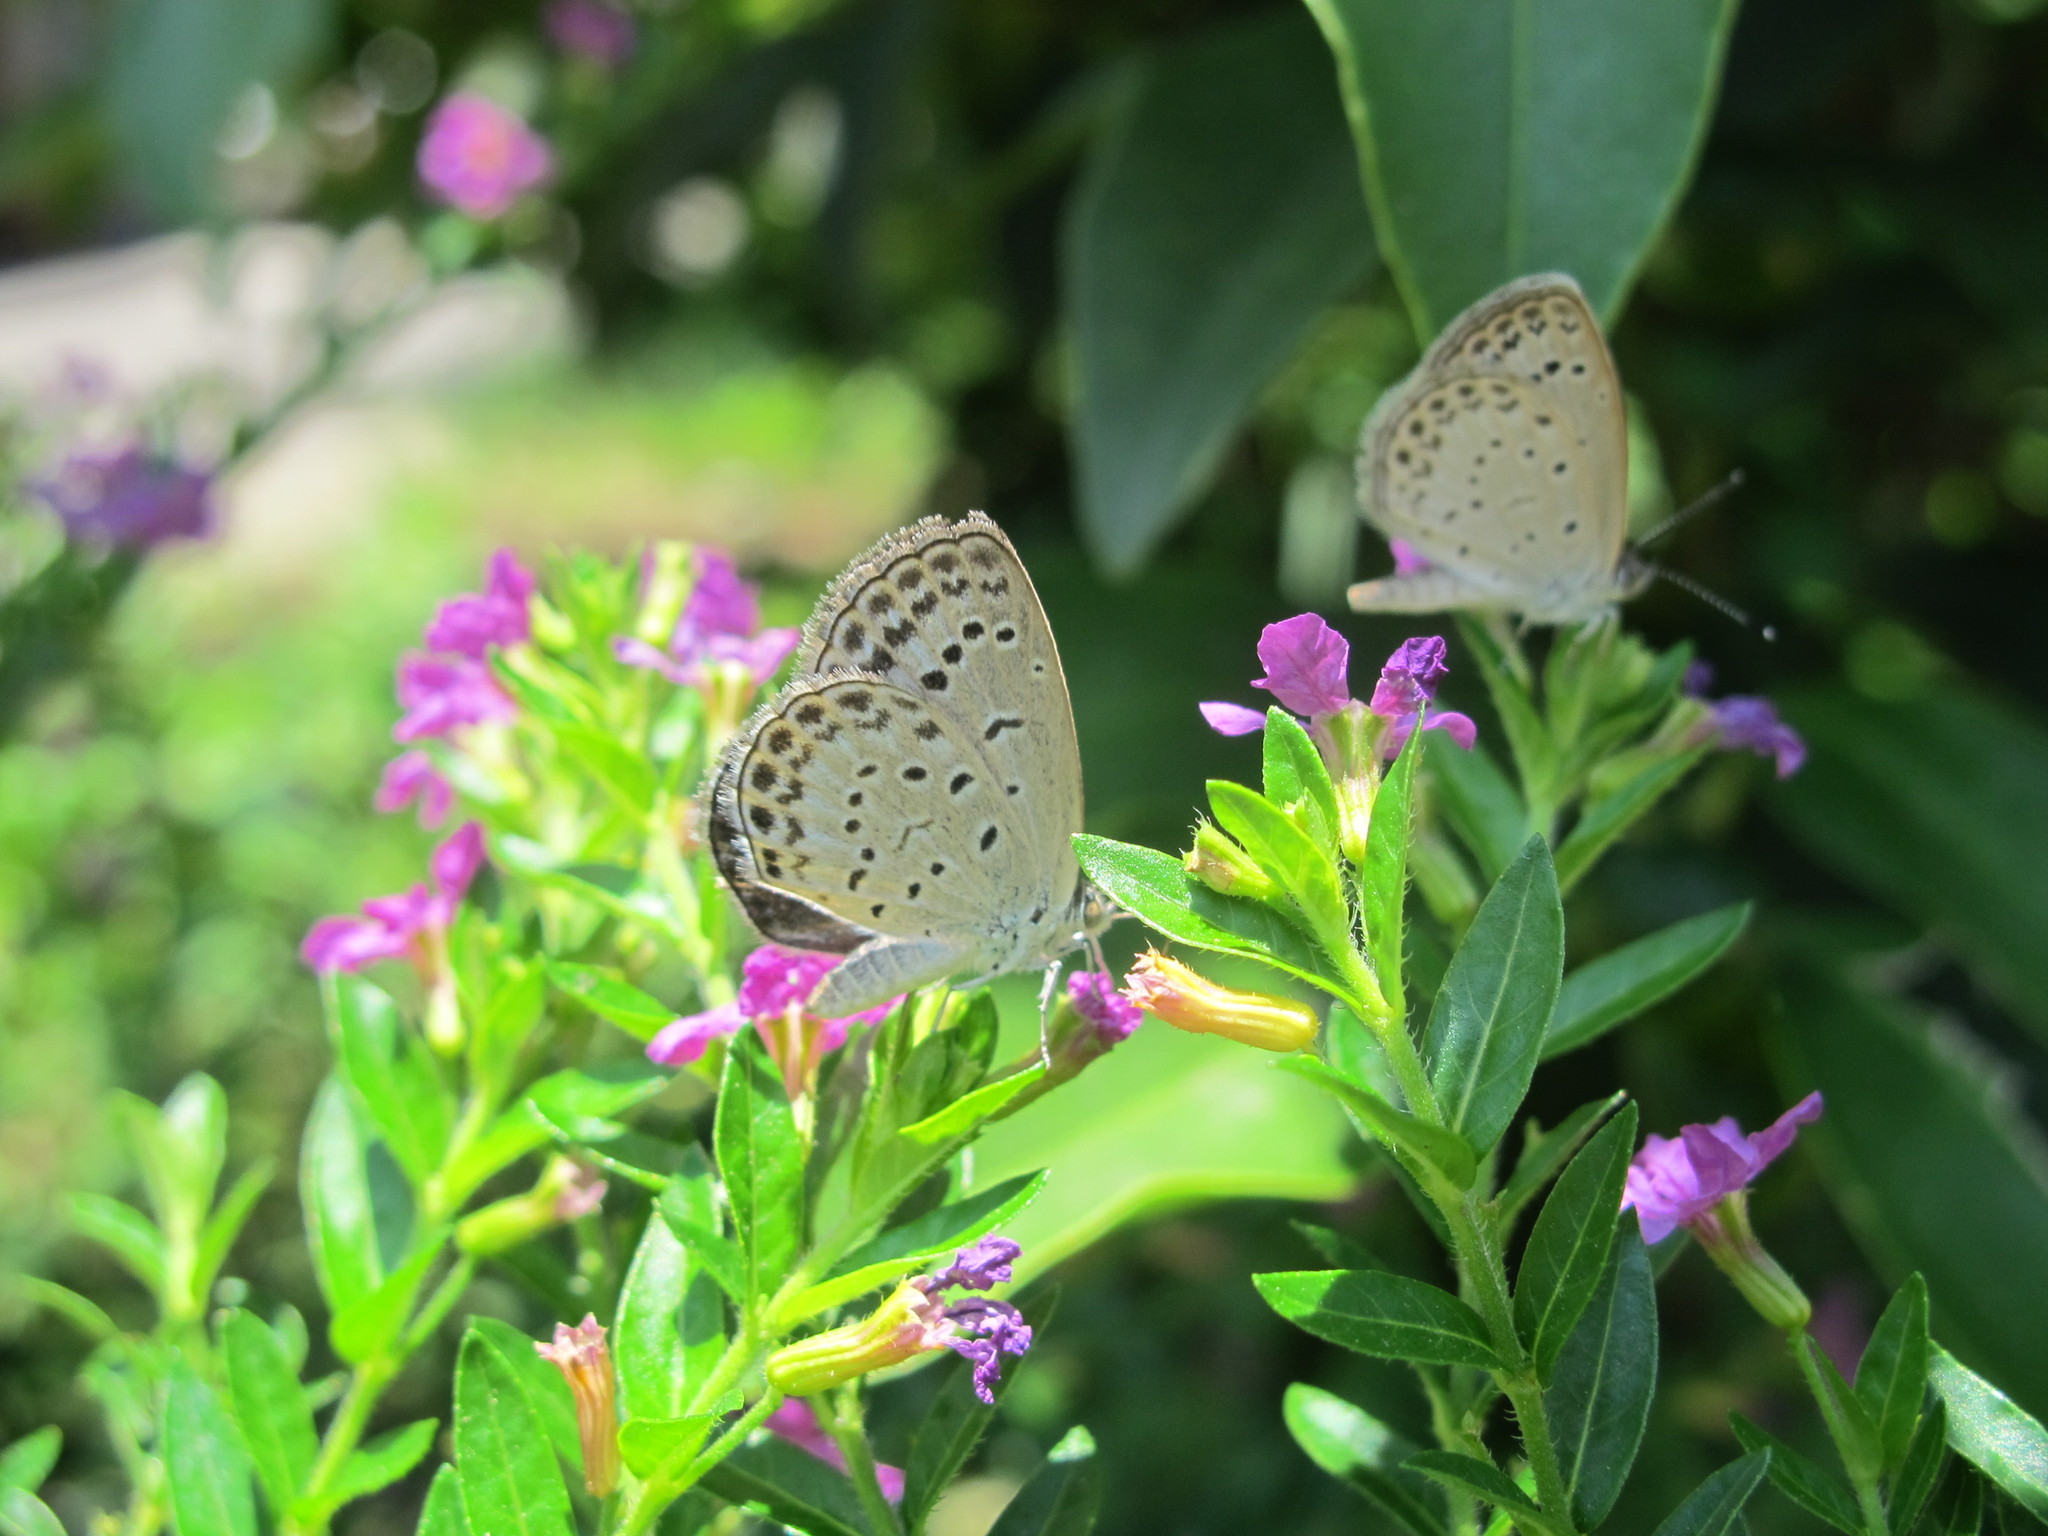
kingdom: Animalia
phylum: Arthropoda
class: Insecta
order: Lepidoptera
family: Lycaenidae
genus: Pseudozizeeria
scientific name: Pseudozizeeria maha
